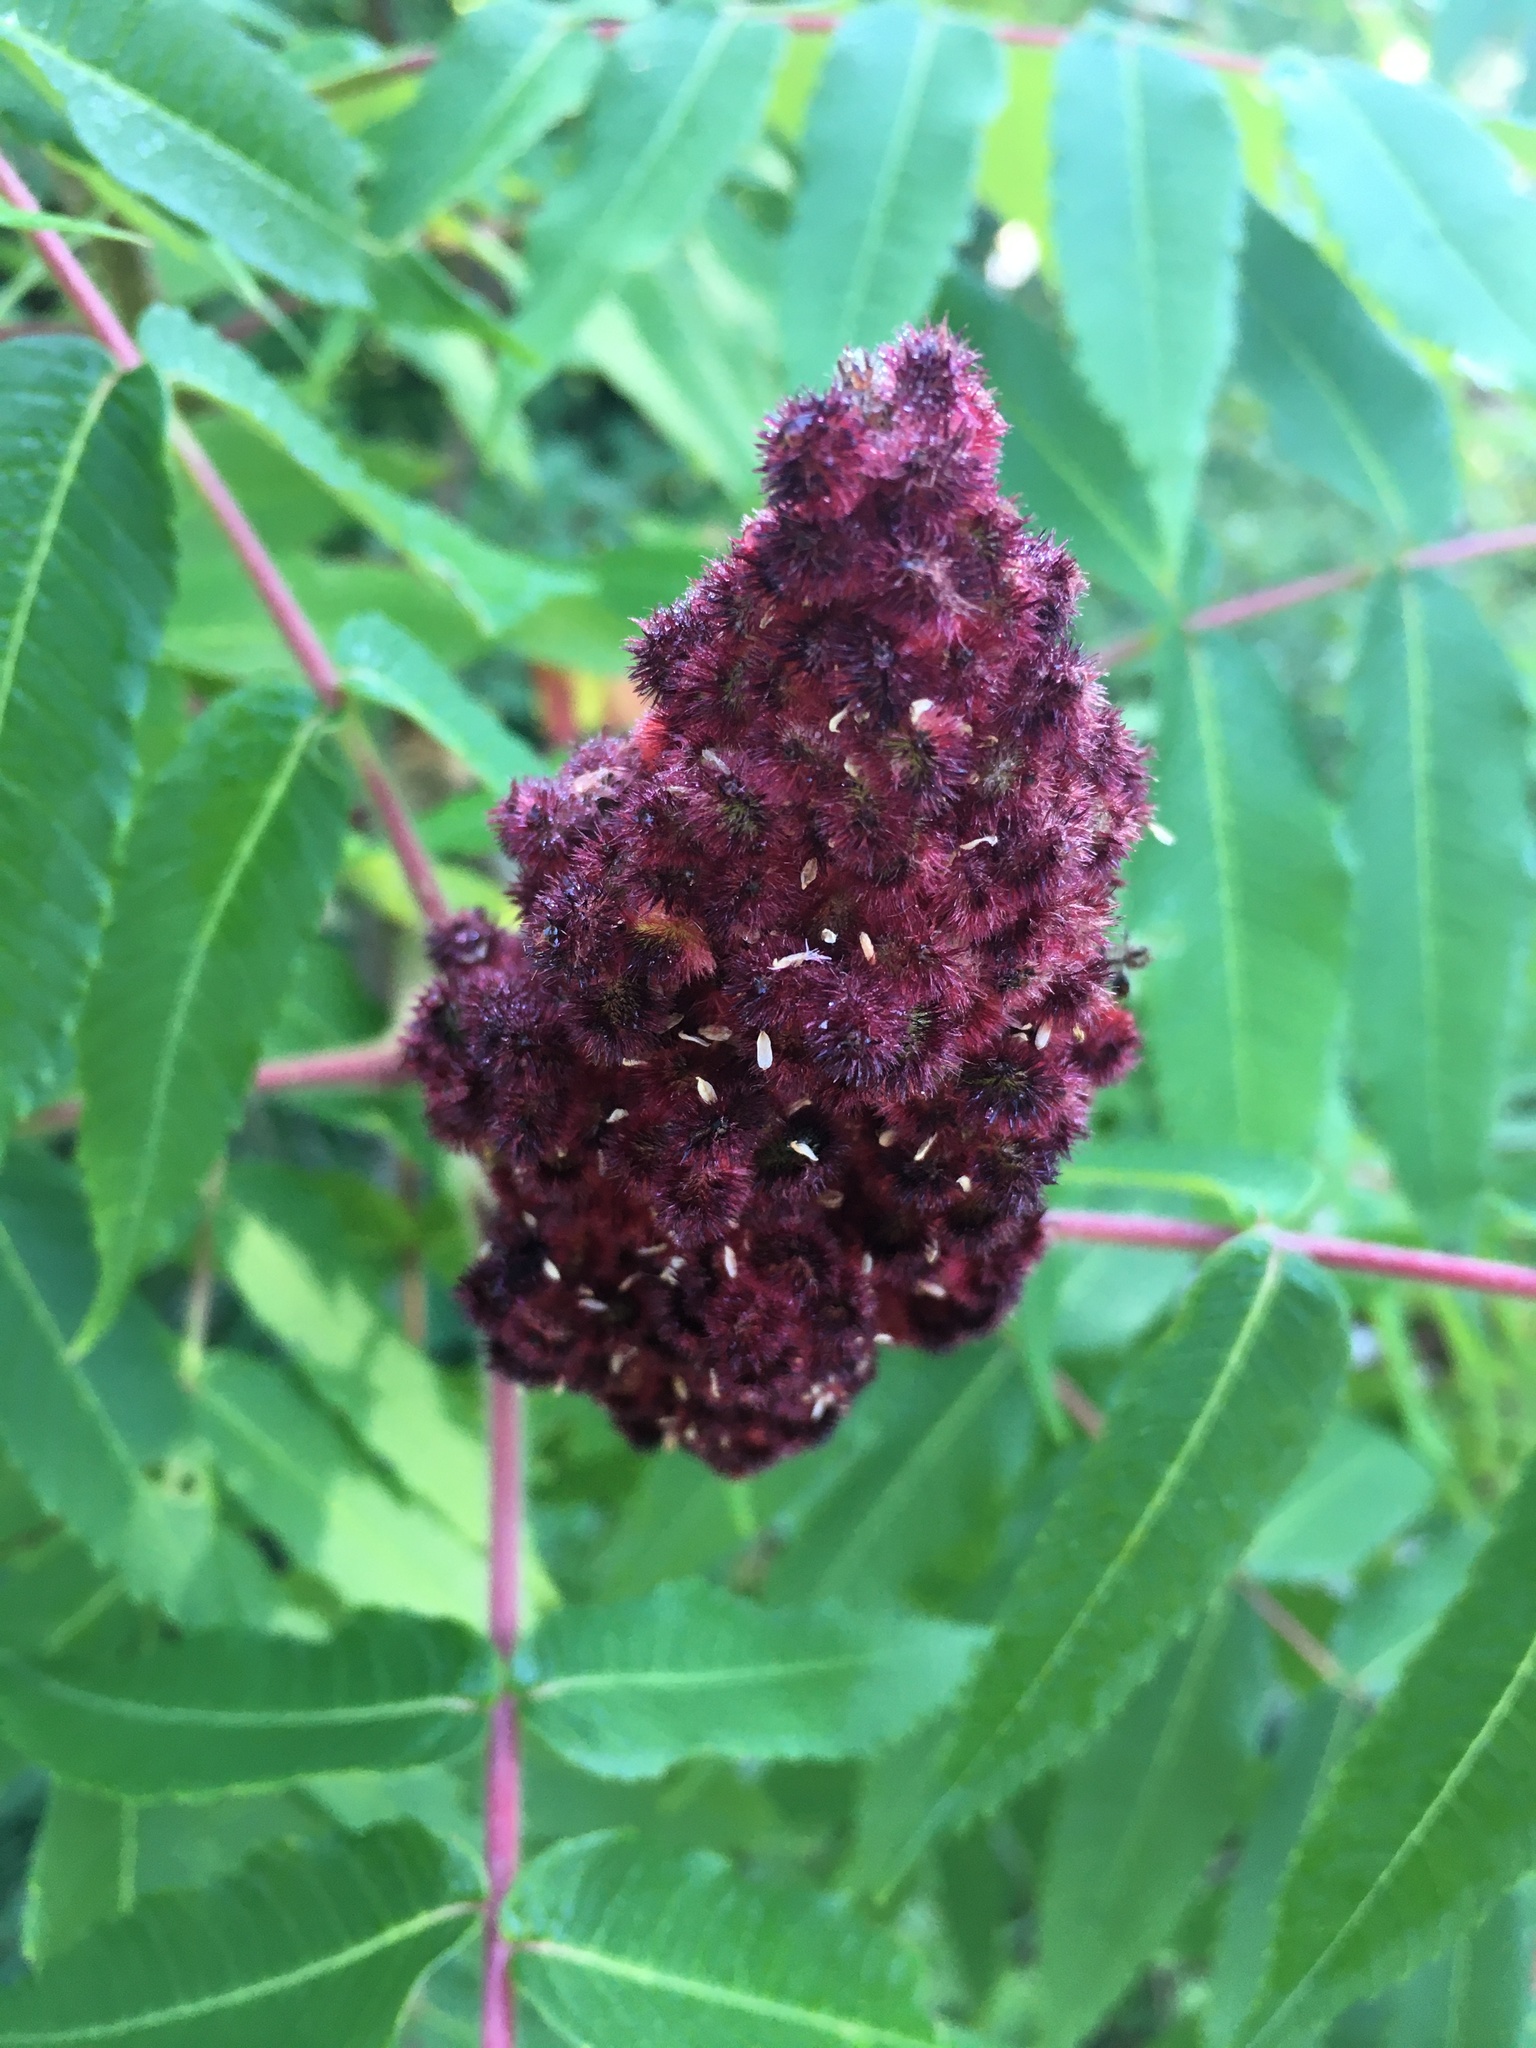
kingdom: Plantae
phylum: Tracheophyta
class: Magnoliopsida
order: Sapindales
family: Anacardiaceae
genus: Rhus
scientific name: Rhus typhina
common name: Staghorn sumac
